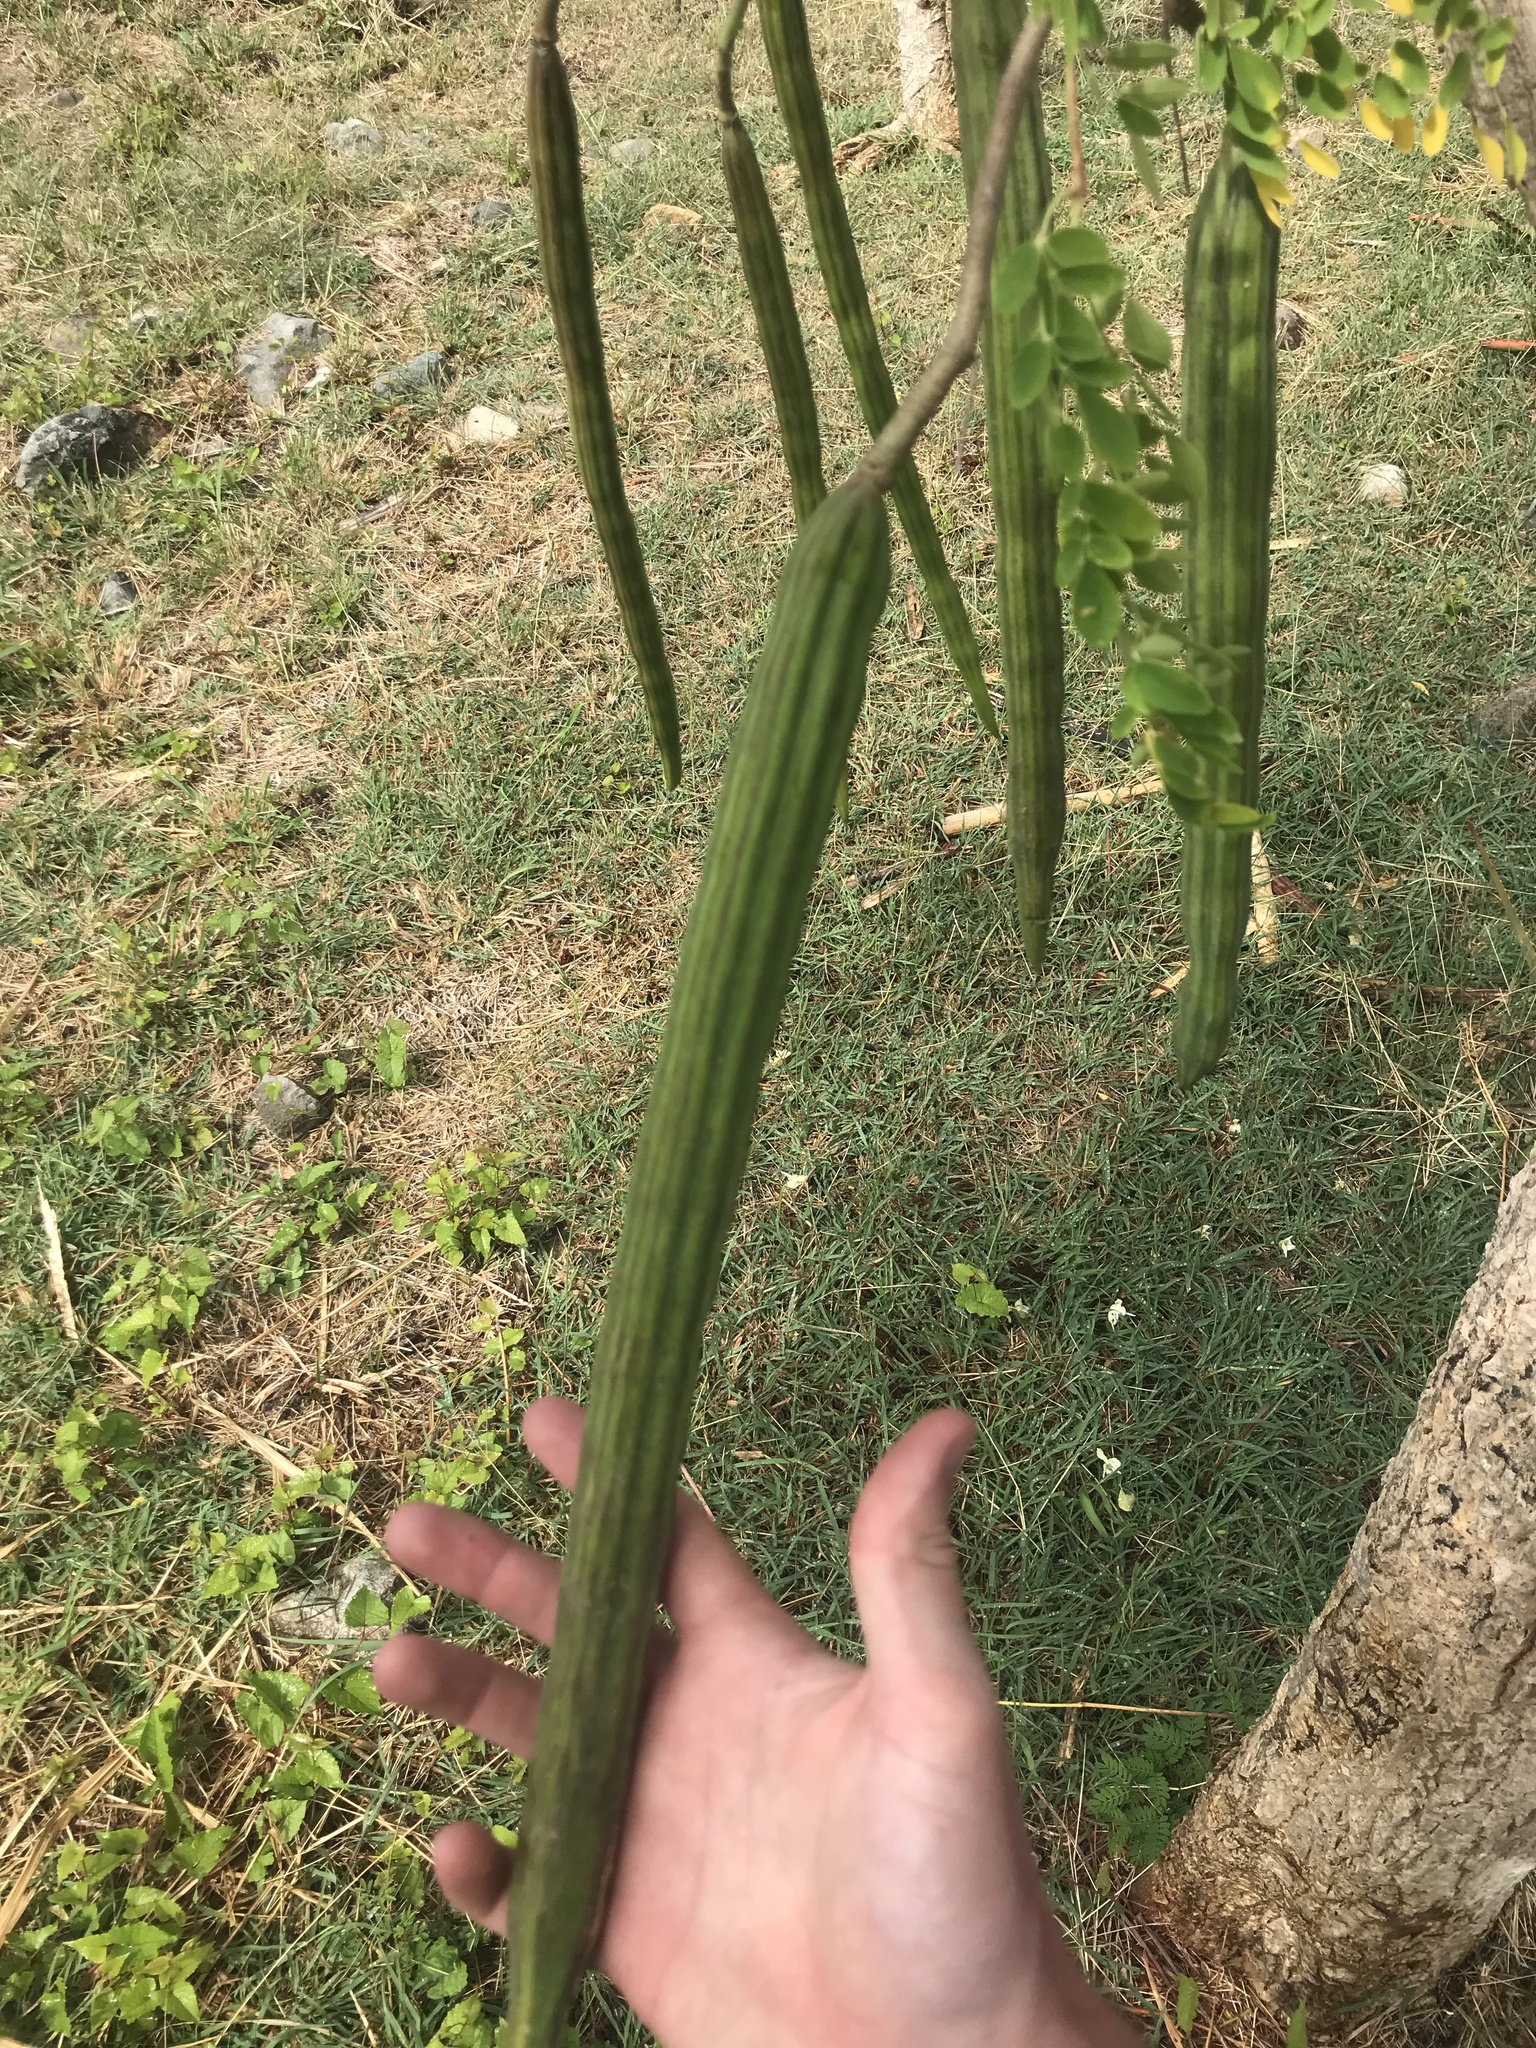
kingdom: Plantae
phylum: Tracheophyta
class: Magnoliopsida
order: Brassicales
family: Moringaceae
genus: Moringa
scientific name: Moringa oleifera
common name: Horseradish-tree
